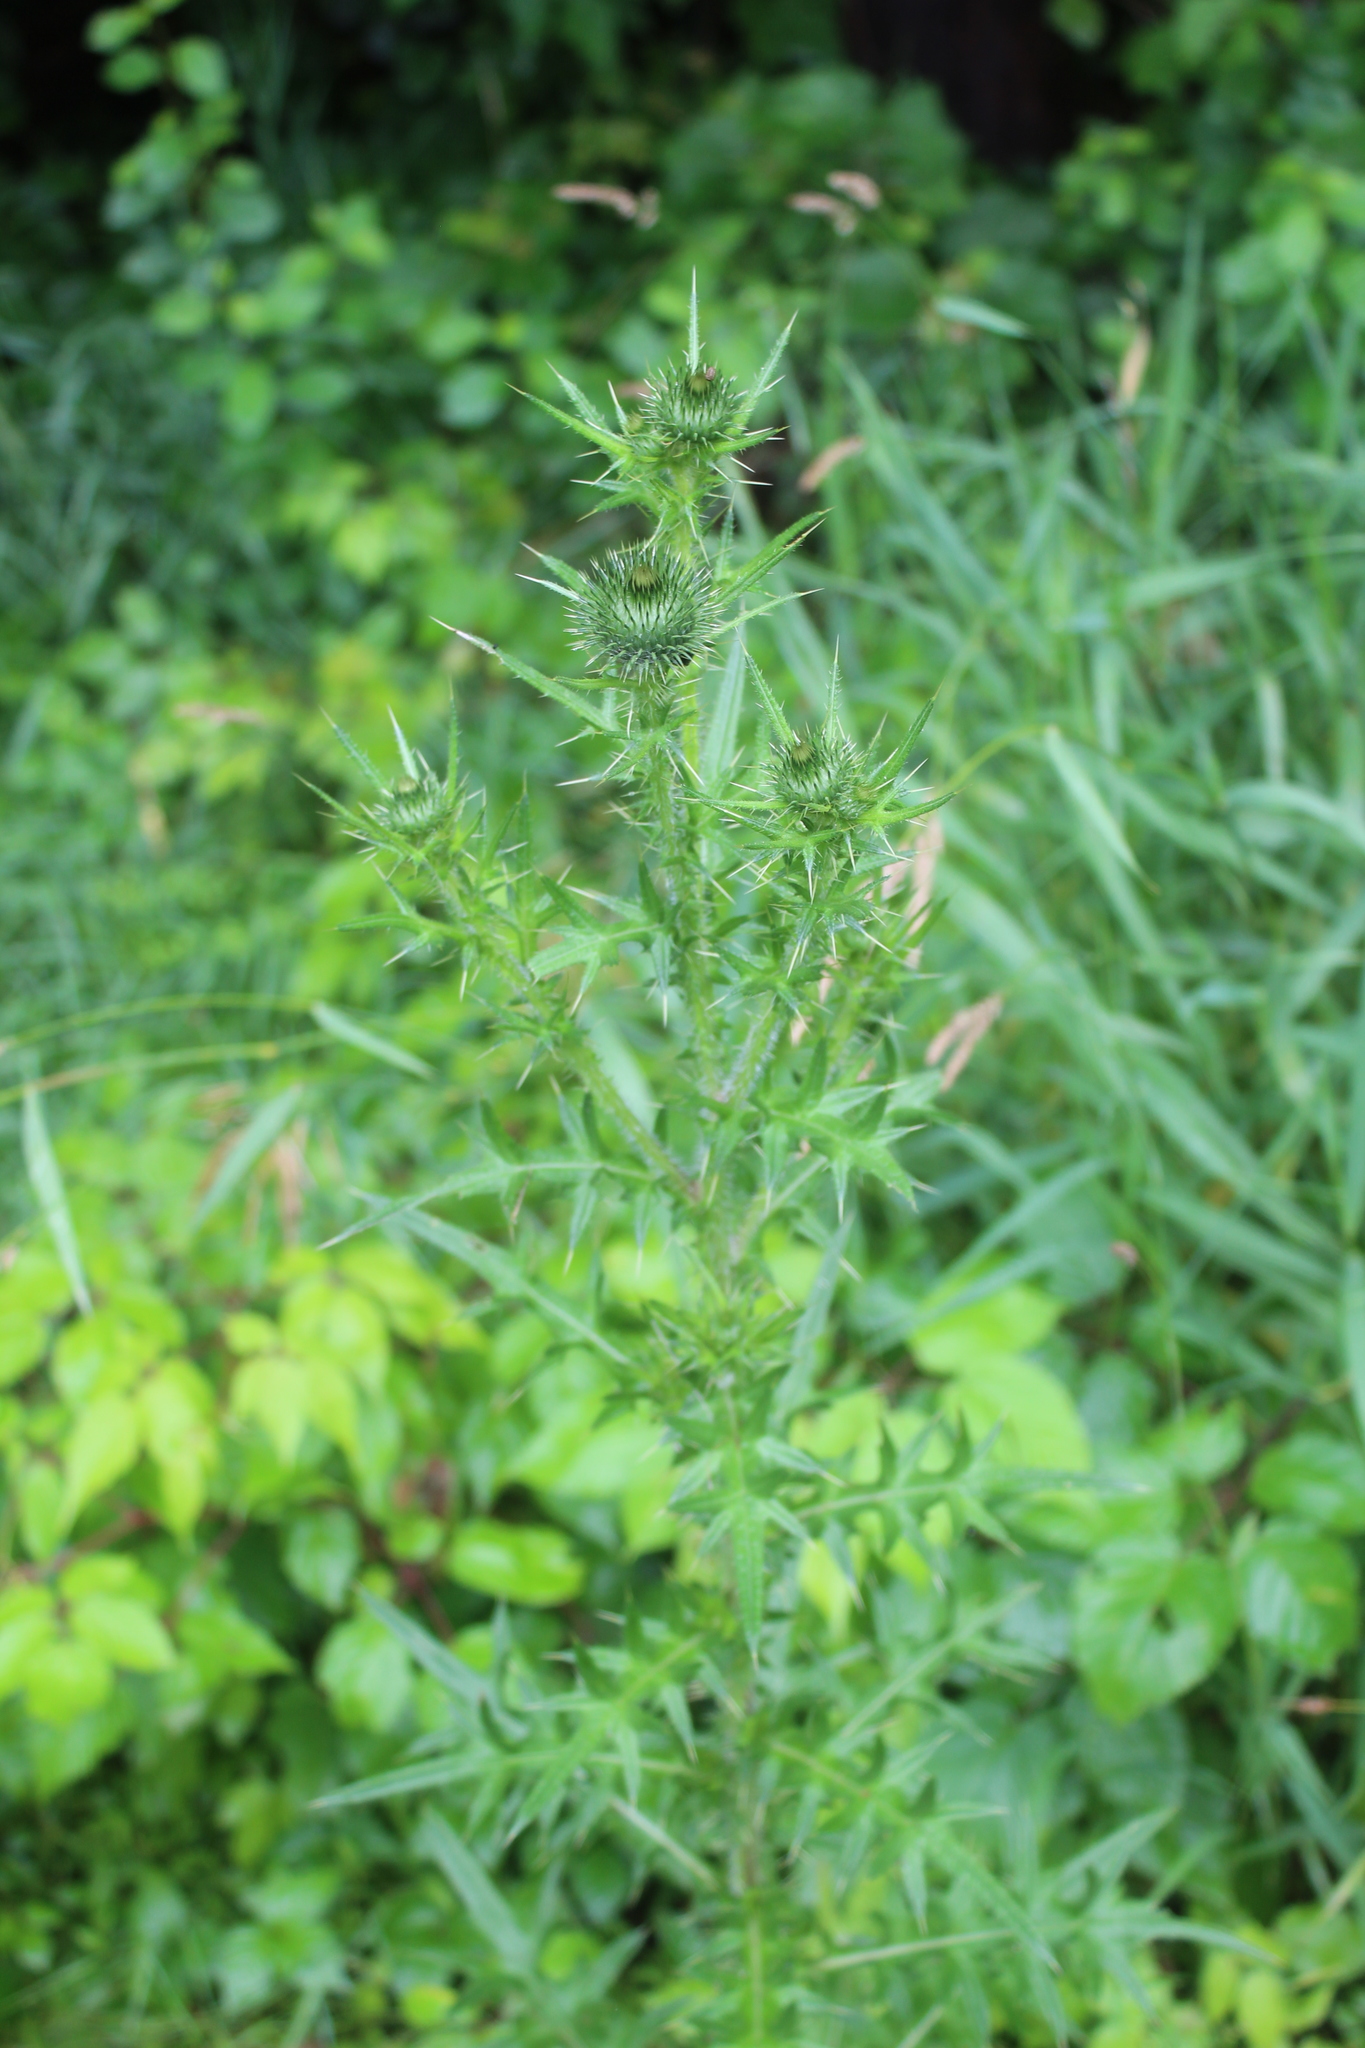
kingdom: Plantae
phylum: Tracheophyta
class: Magnoliopsida
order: Asterales
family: Asteraceae
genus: Cirsium
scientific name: Cirsium vulgare
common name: Bull thistle
